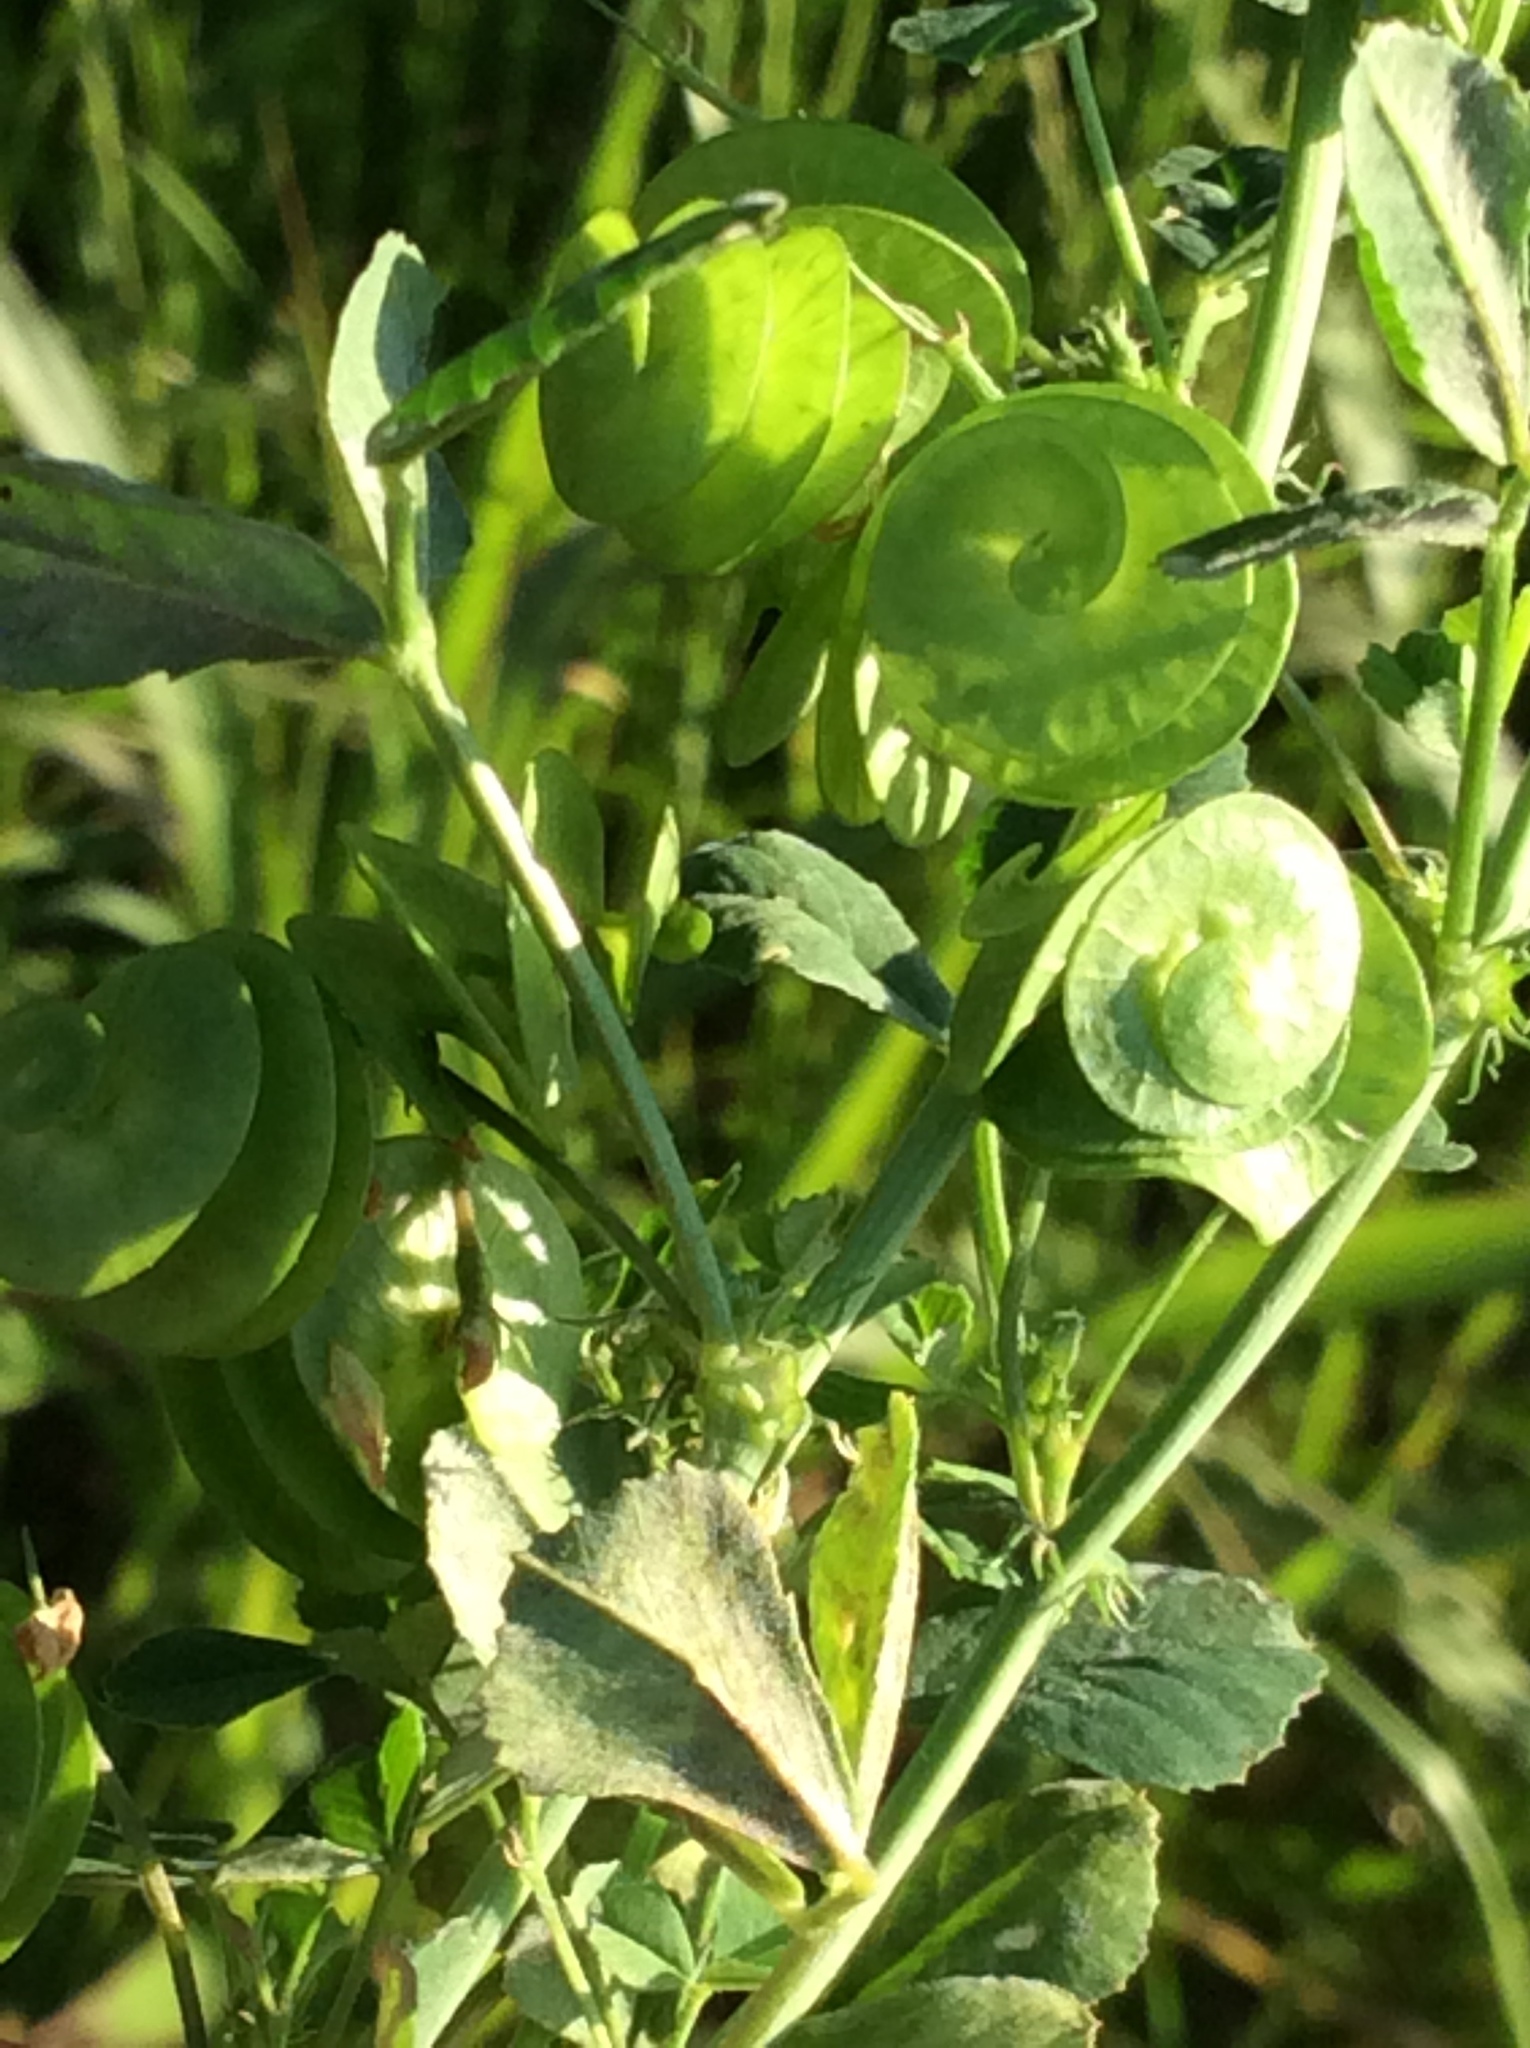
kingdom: Plantae
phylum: Tracheophyta
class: Magnoliopsida
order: Fabales
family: Fabaceae
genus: Medicago
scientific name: Medicago orbicularis
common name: Button medick
